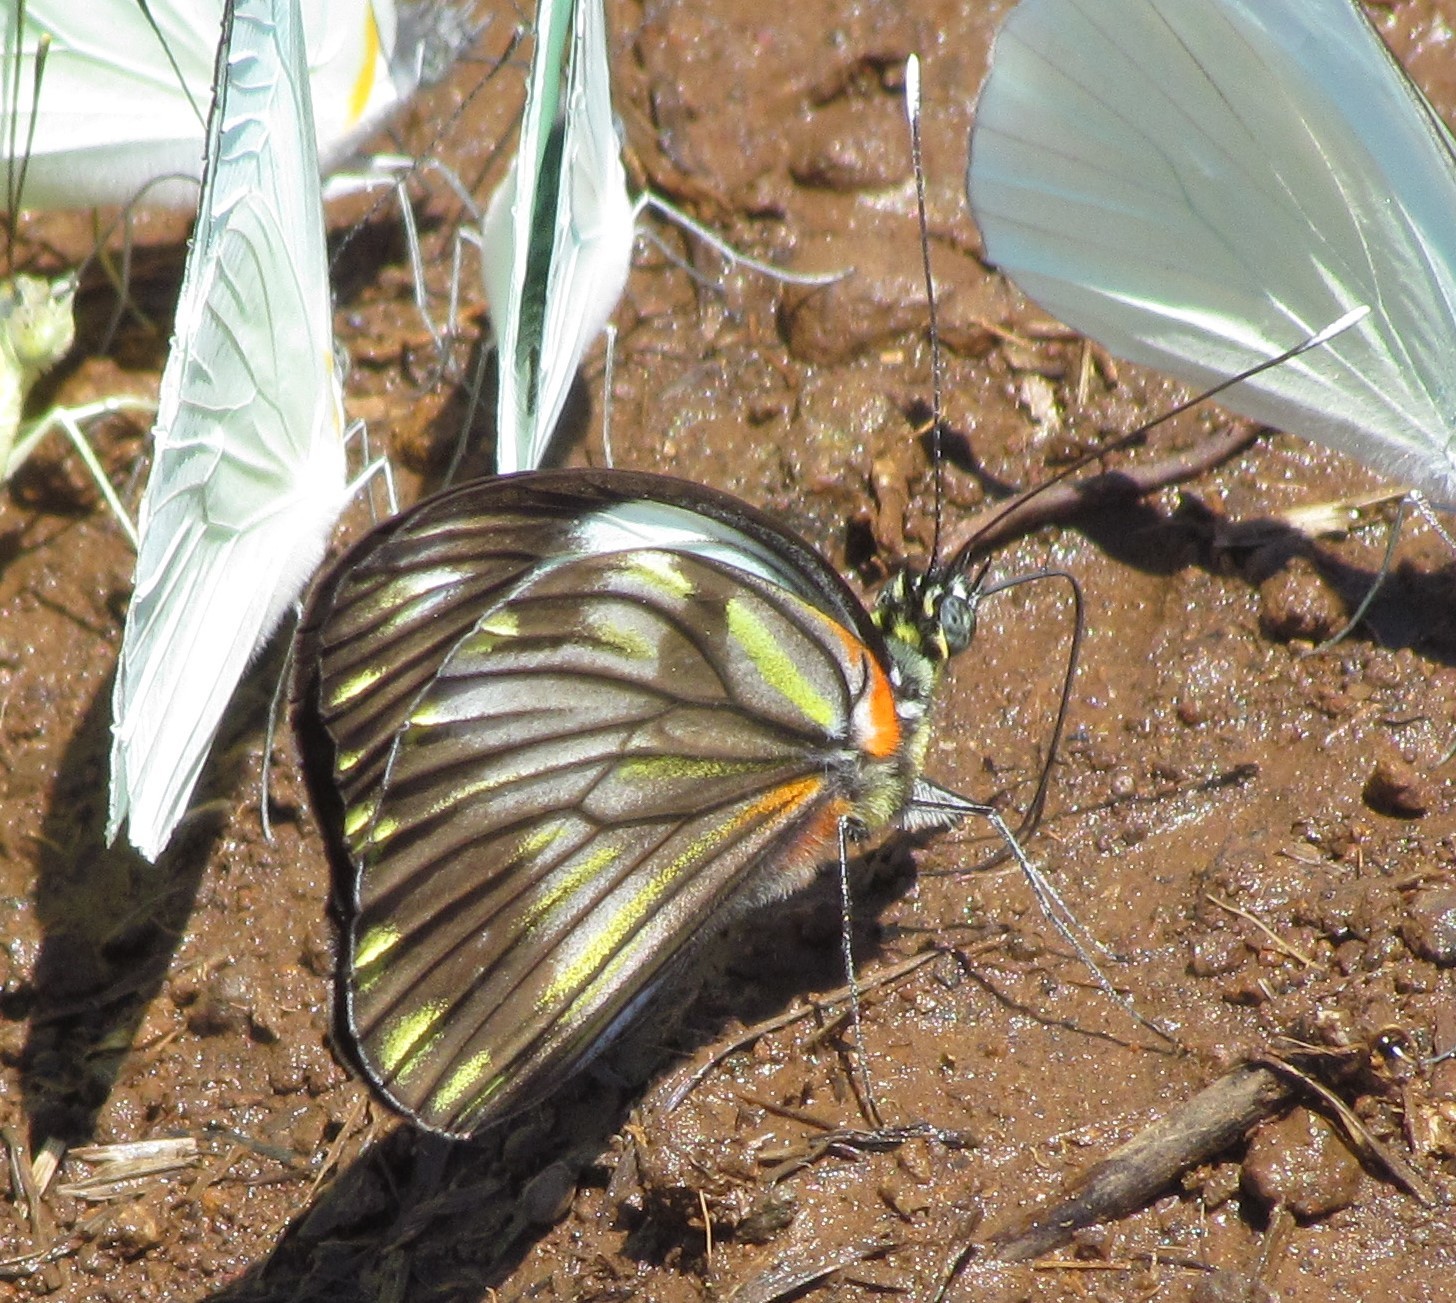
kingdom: Animalia
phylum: Arthropoda
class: Insecta
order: Lepidoptera
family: Pieridae
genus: Pieriballia
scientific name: Pieriballia viardi
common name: Painted white
